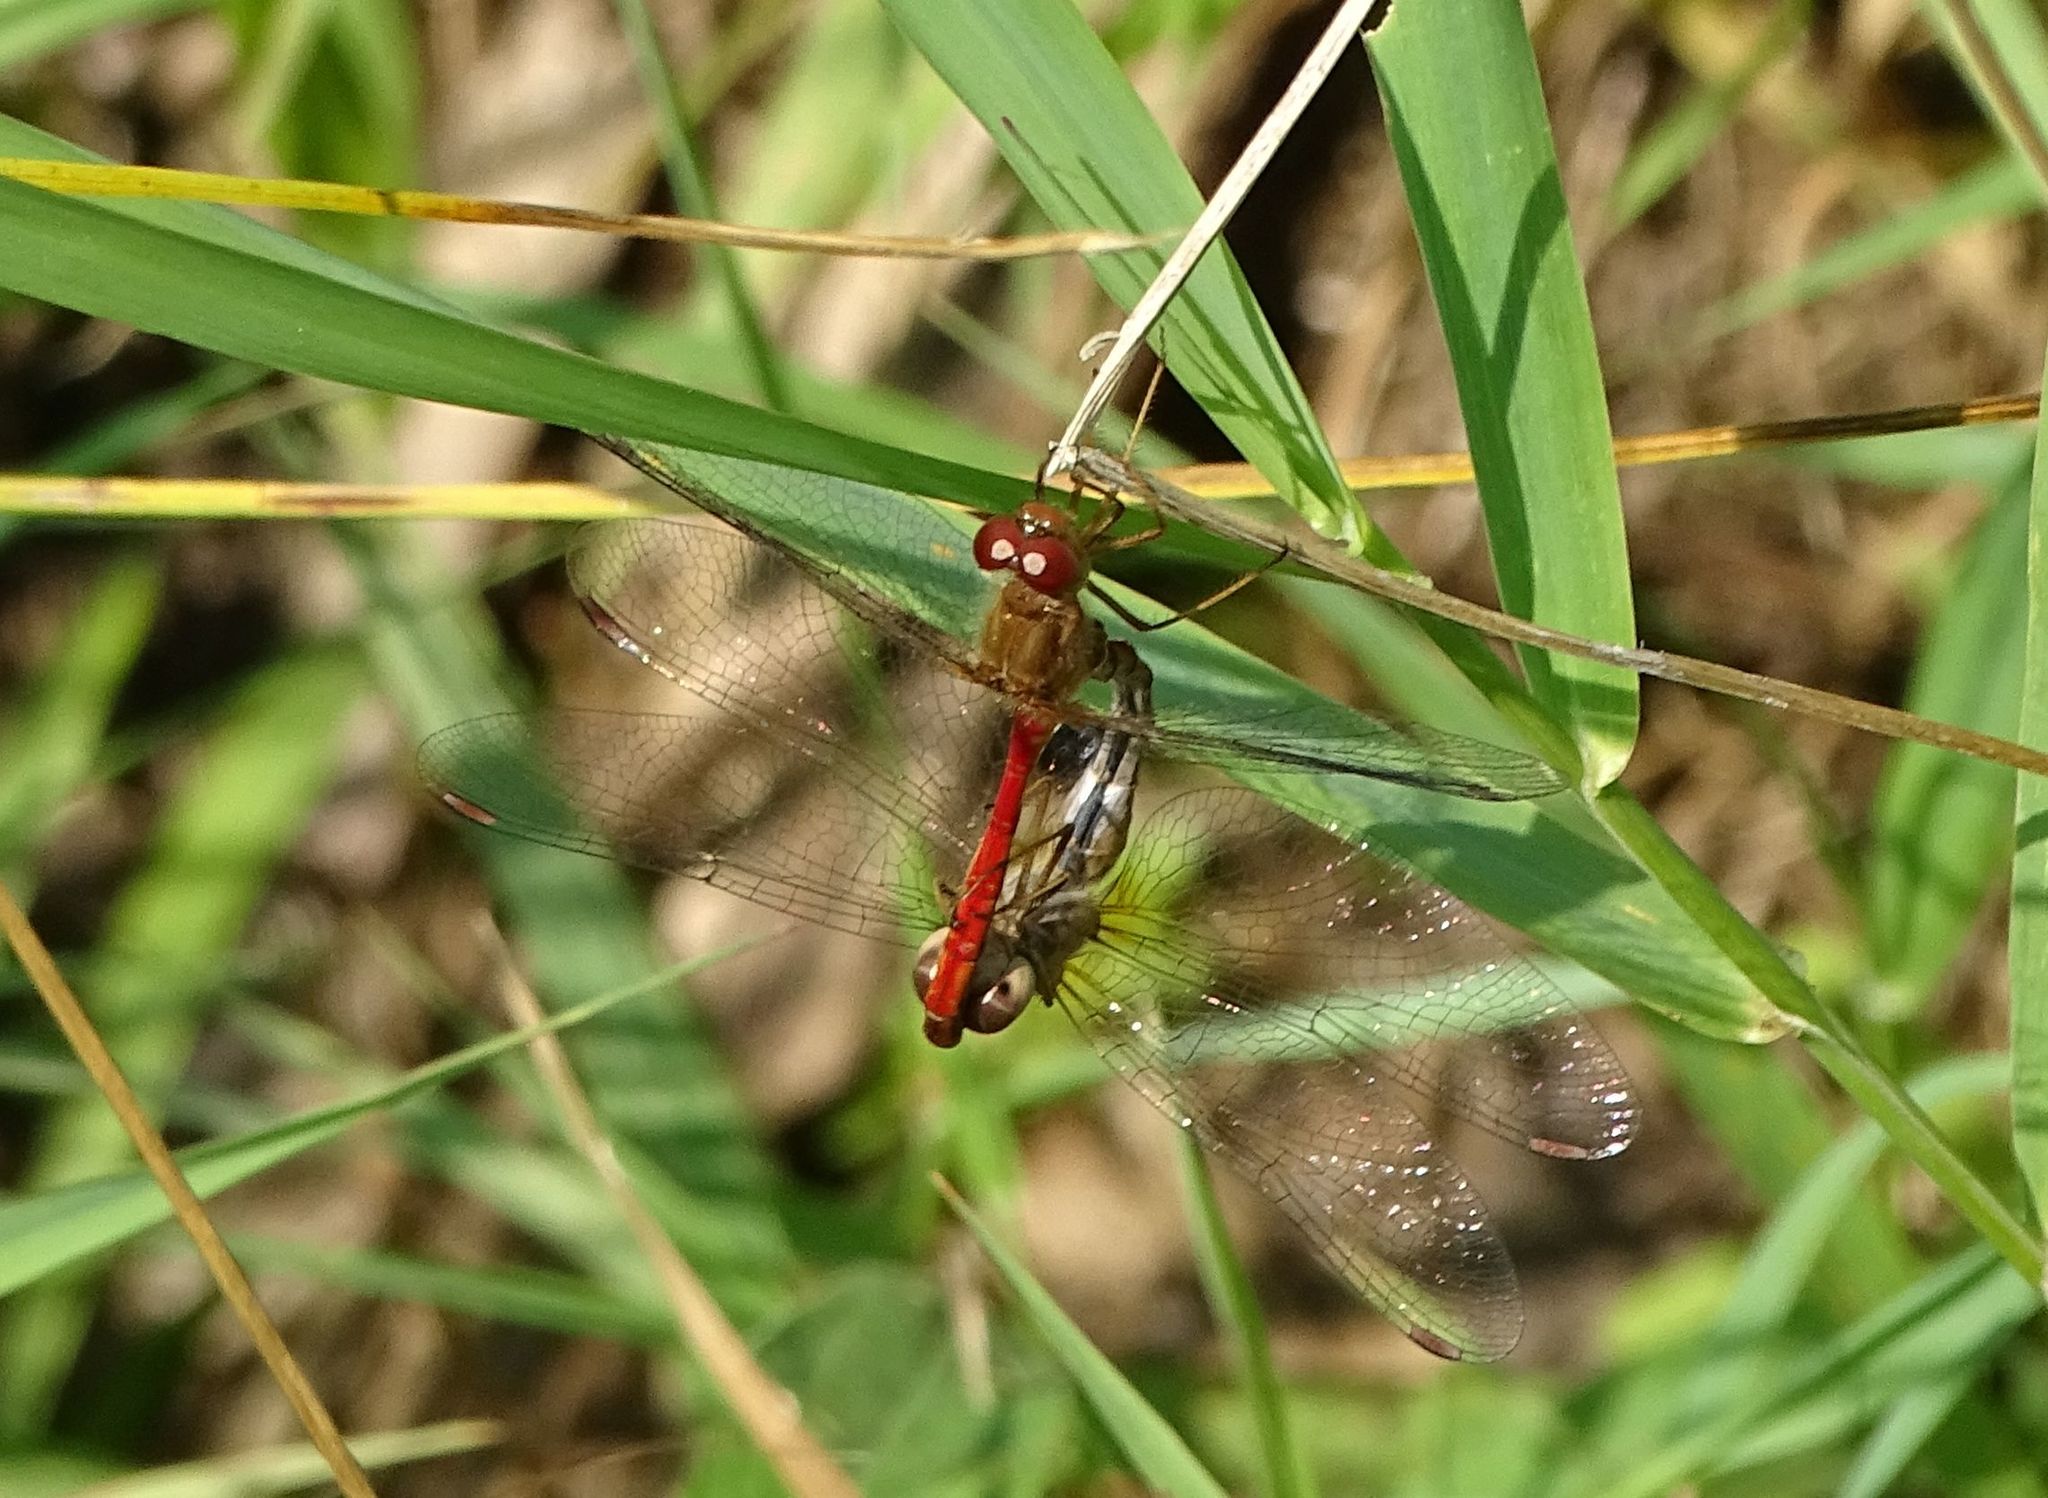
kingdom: Animalia
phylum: Arthropoda
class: Insecta
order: Odonata
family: Libellulidae
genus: Sympetrum
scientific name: Sympetrum vicinum
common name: Autumn meadowhawk
